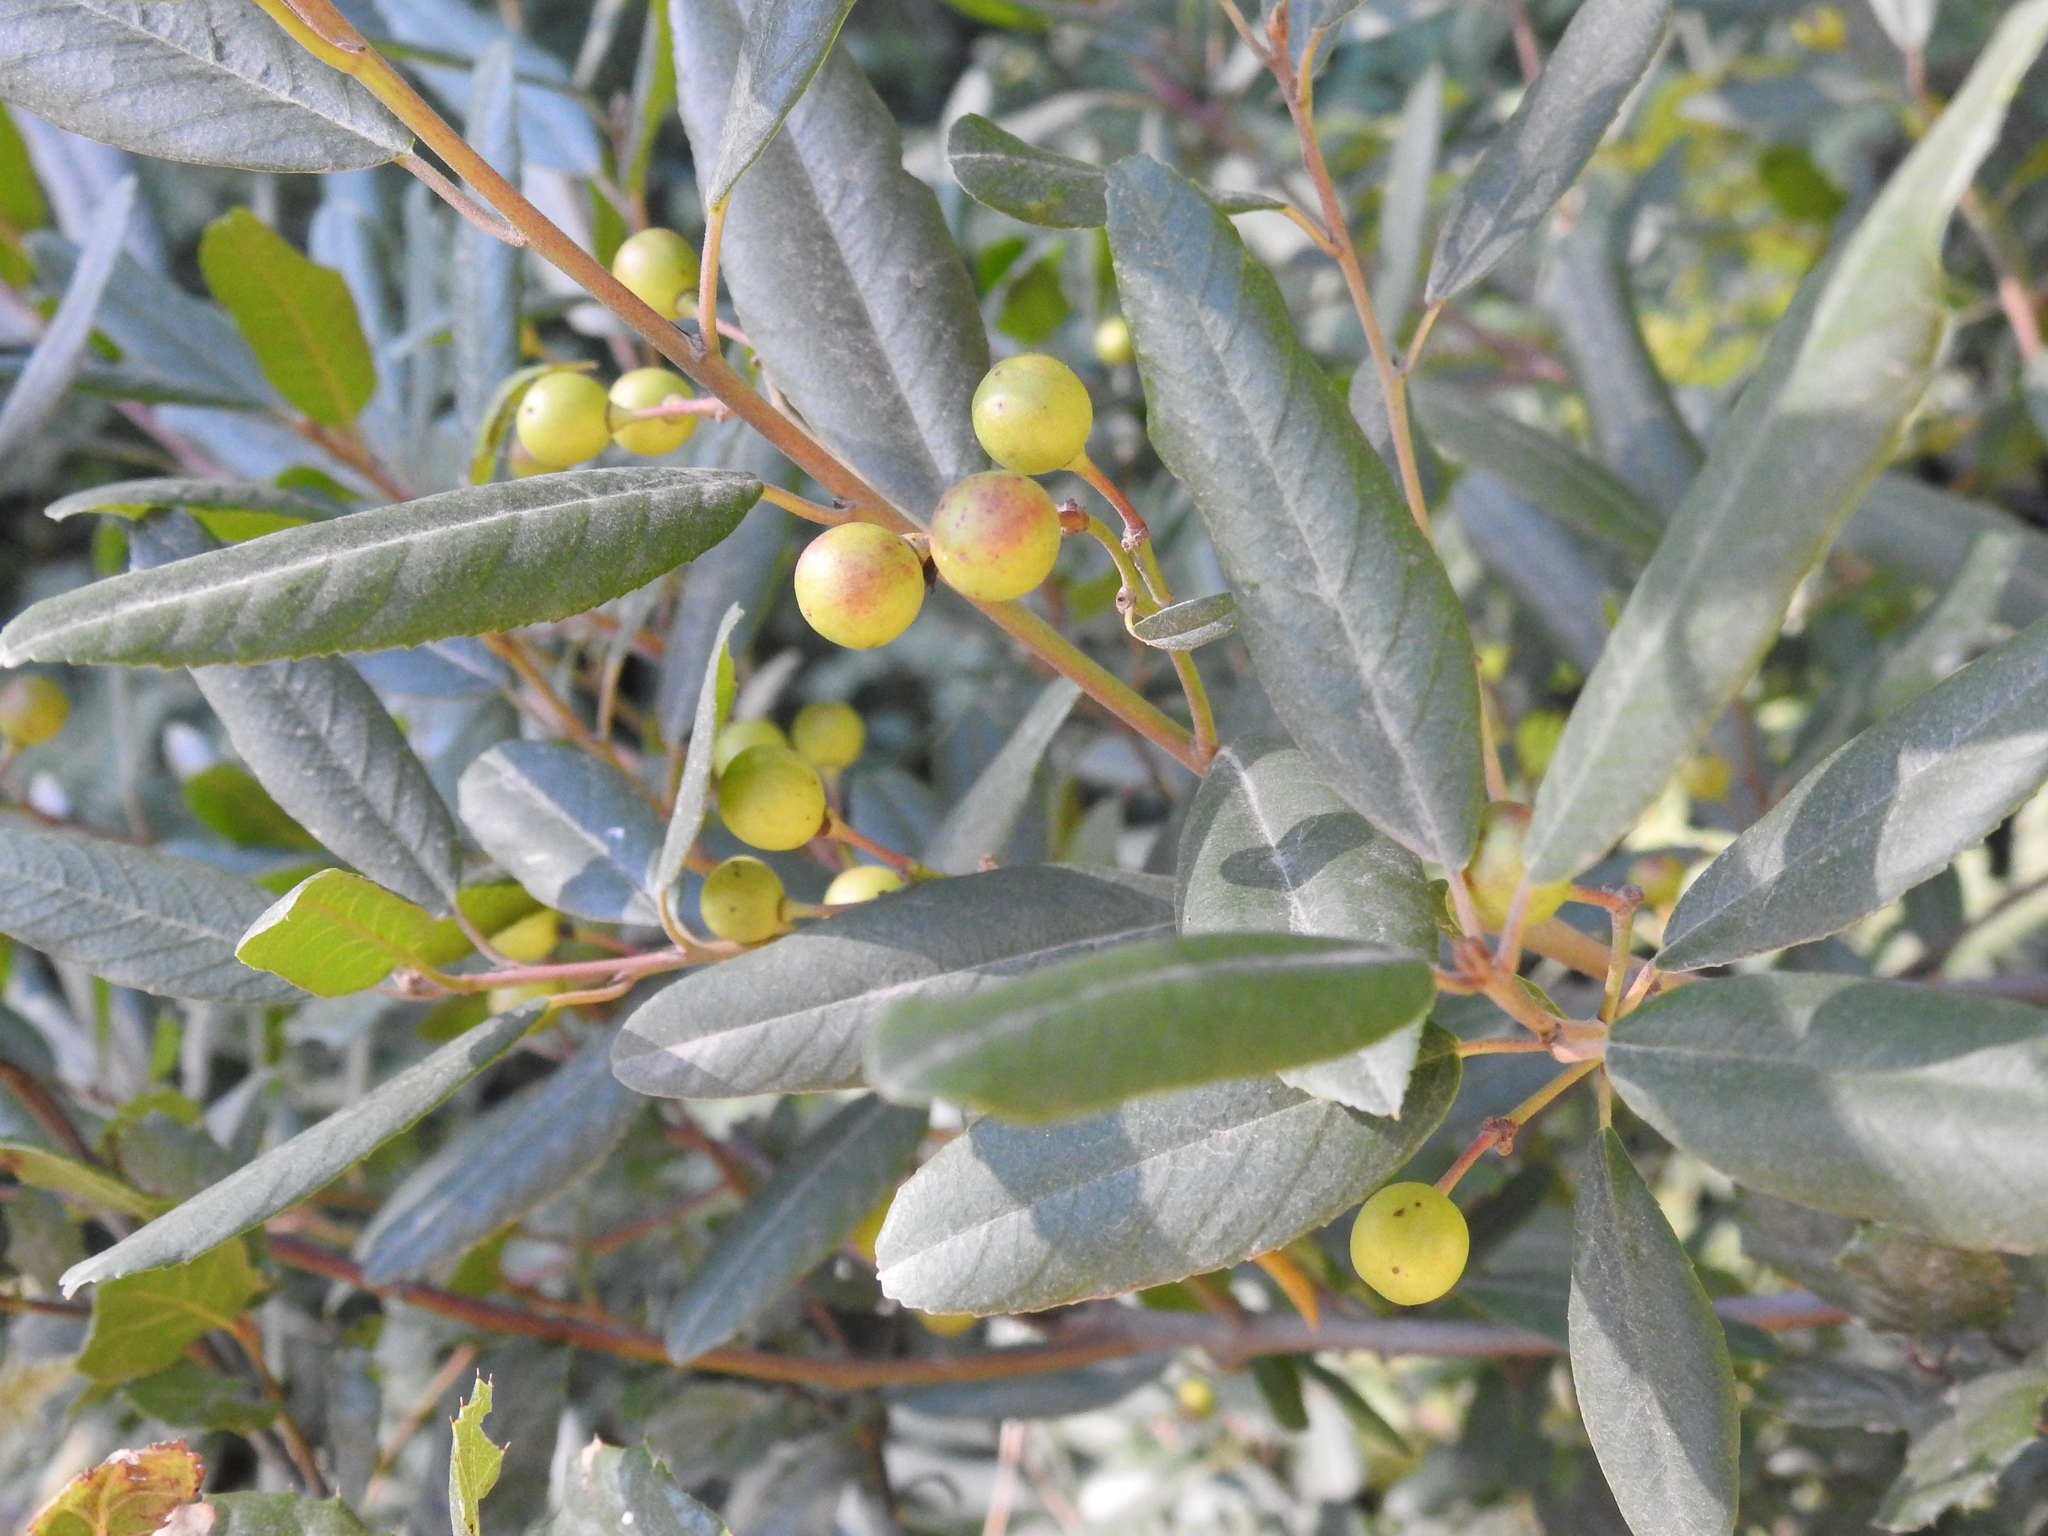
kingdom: Plantae
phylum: Tracheophyta
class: Magnoliopsida
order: Rosales
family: Rhamnaceae
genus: Frangula
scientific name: Frangula californica
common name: California buckthorn
